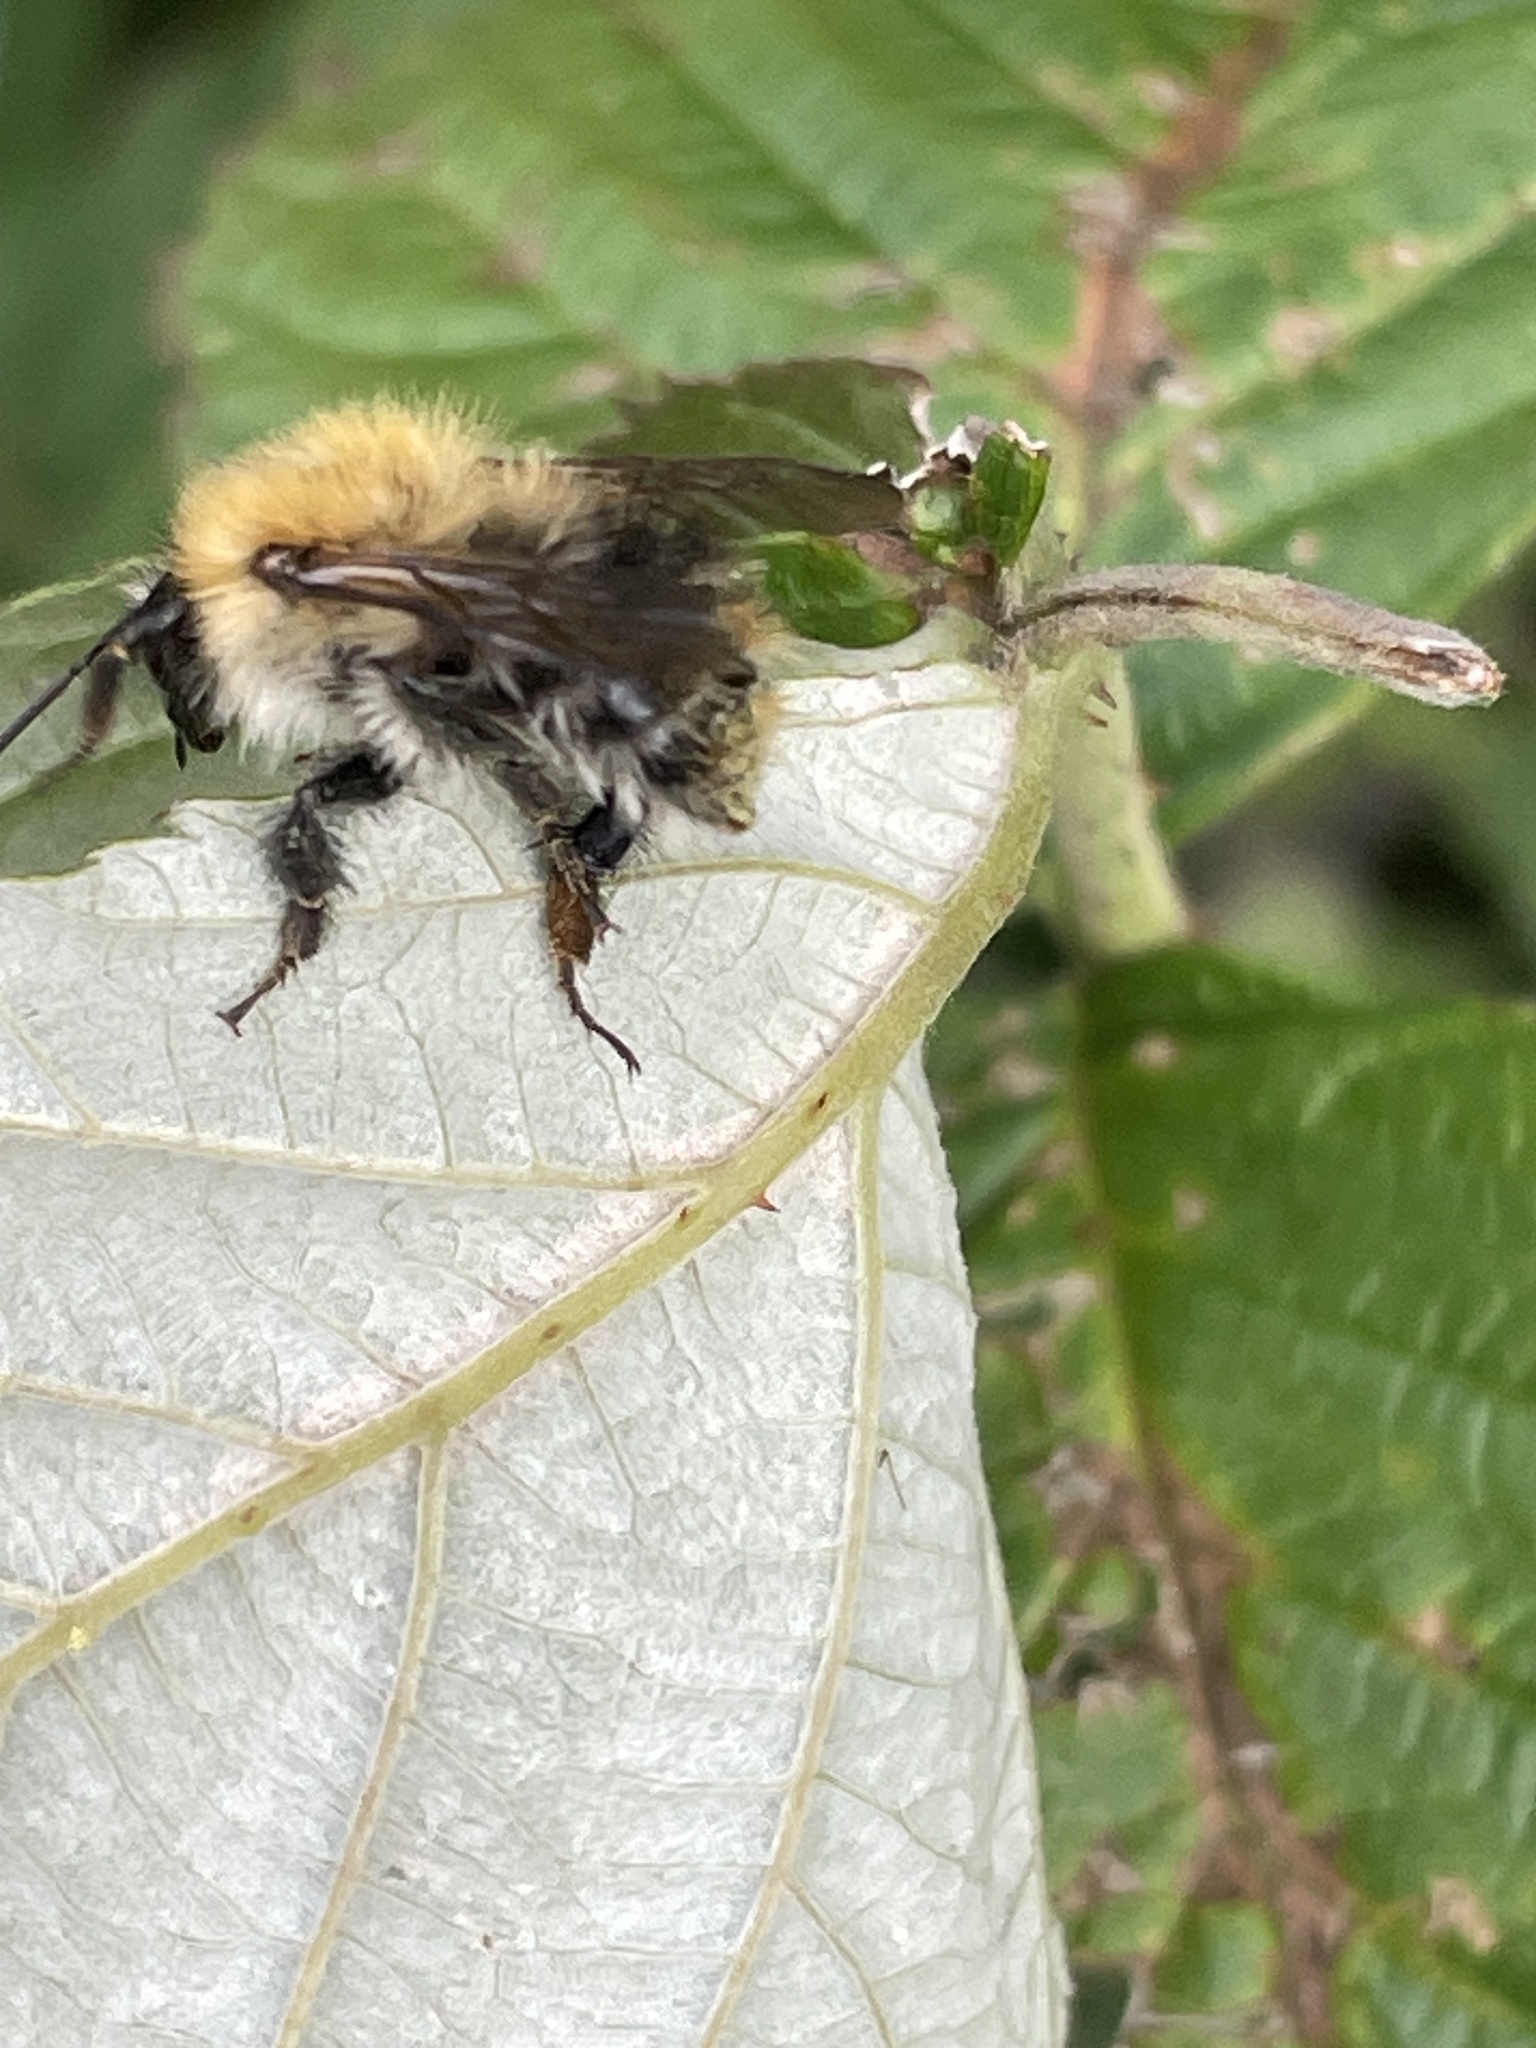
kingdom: Animalia
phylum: Arthropoda
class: Insecta
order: Hymenoptera
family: Apidae
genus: Bombus
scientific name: Bombus pascuorum
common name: Common carder bee
